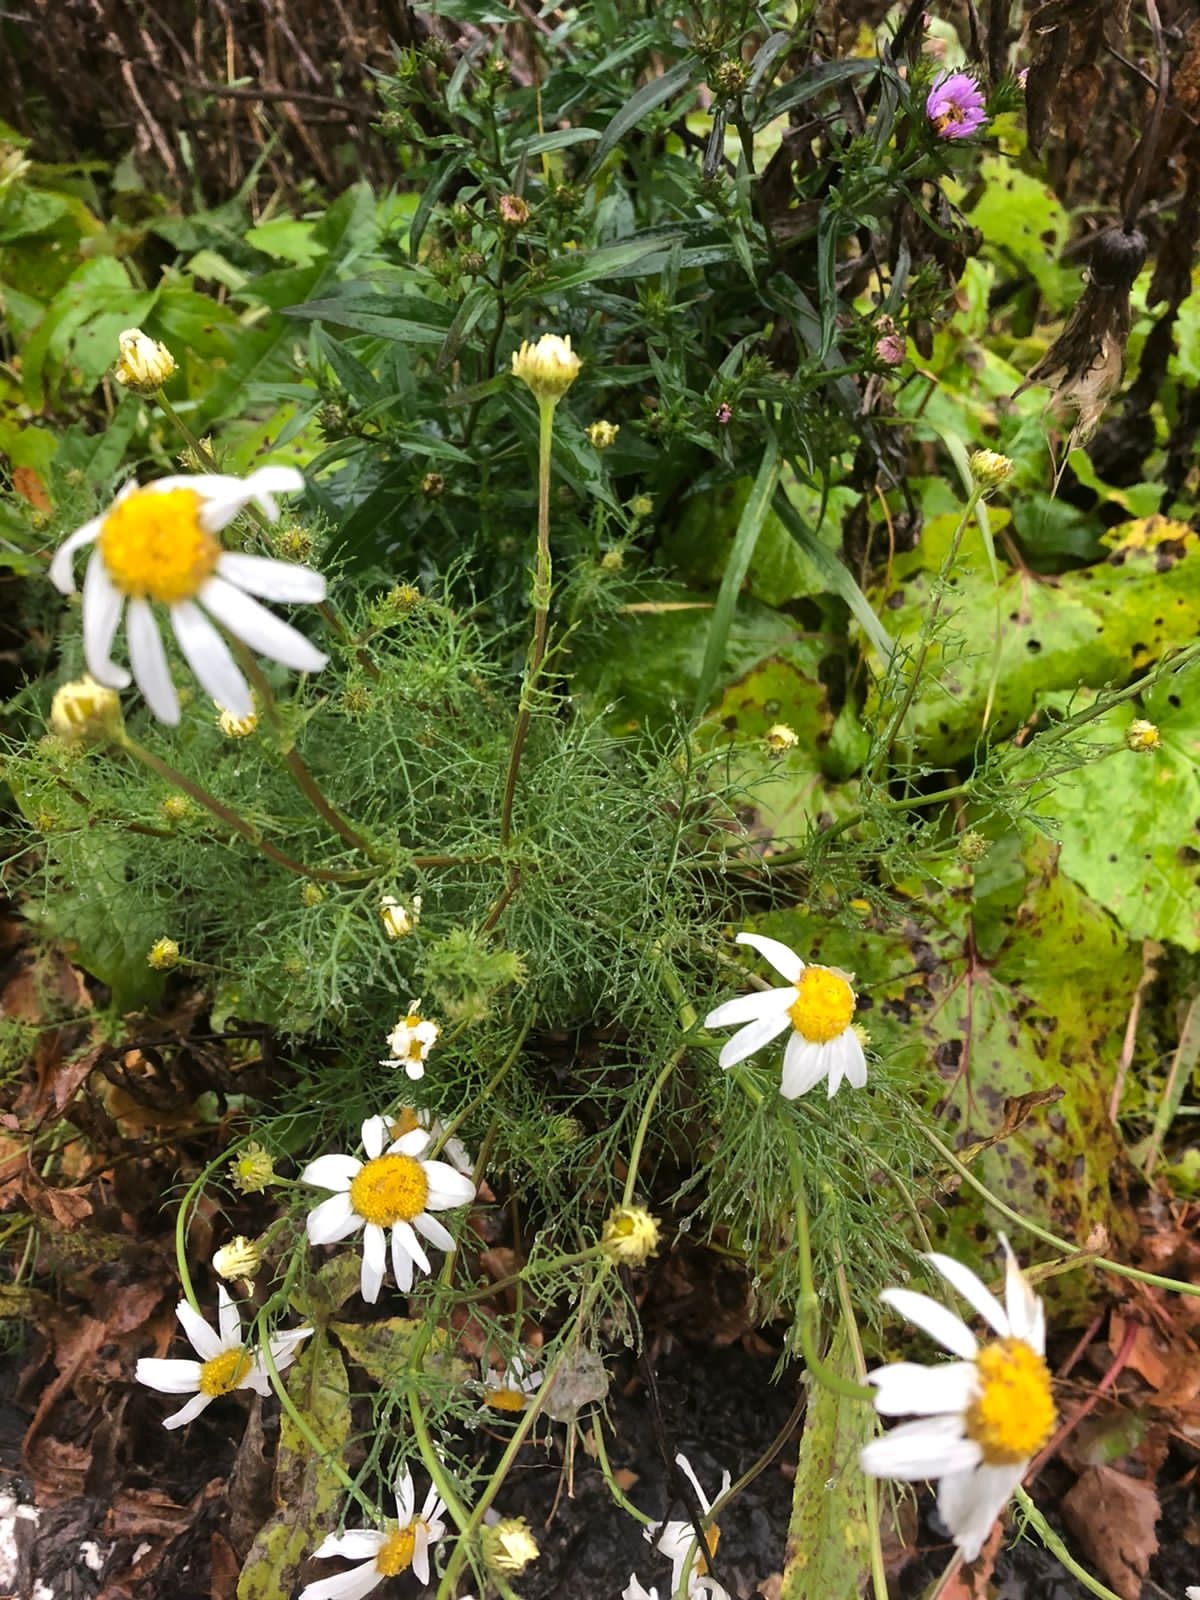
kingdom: Plantae
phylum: Tracheophyta
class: Magnoliopsida
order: Asterales
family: Asteraceae
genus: Tripleurospermum
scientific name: Tripleurospermum inodorum
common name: Scentless mayweed
